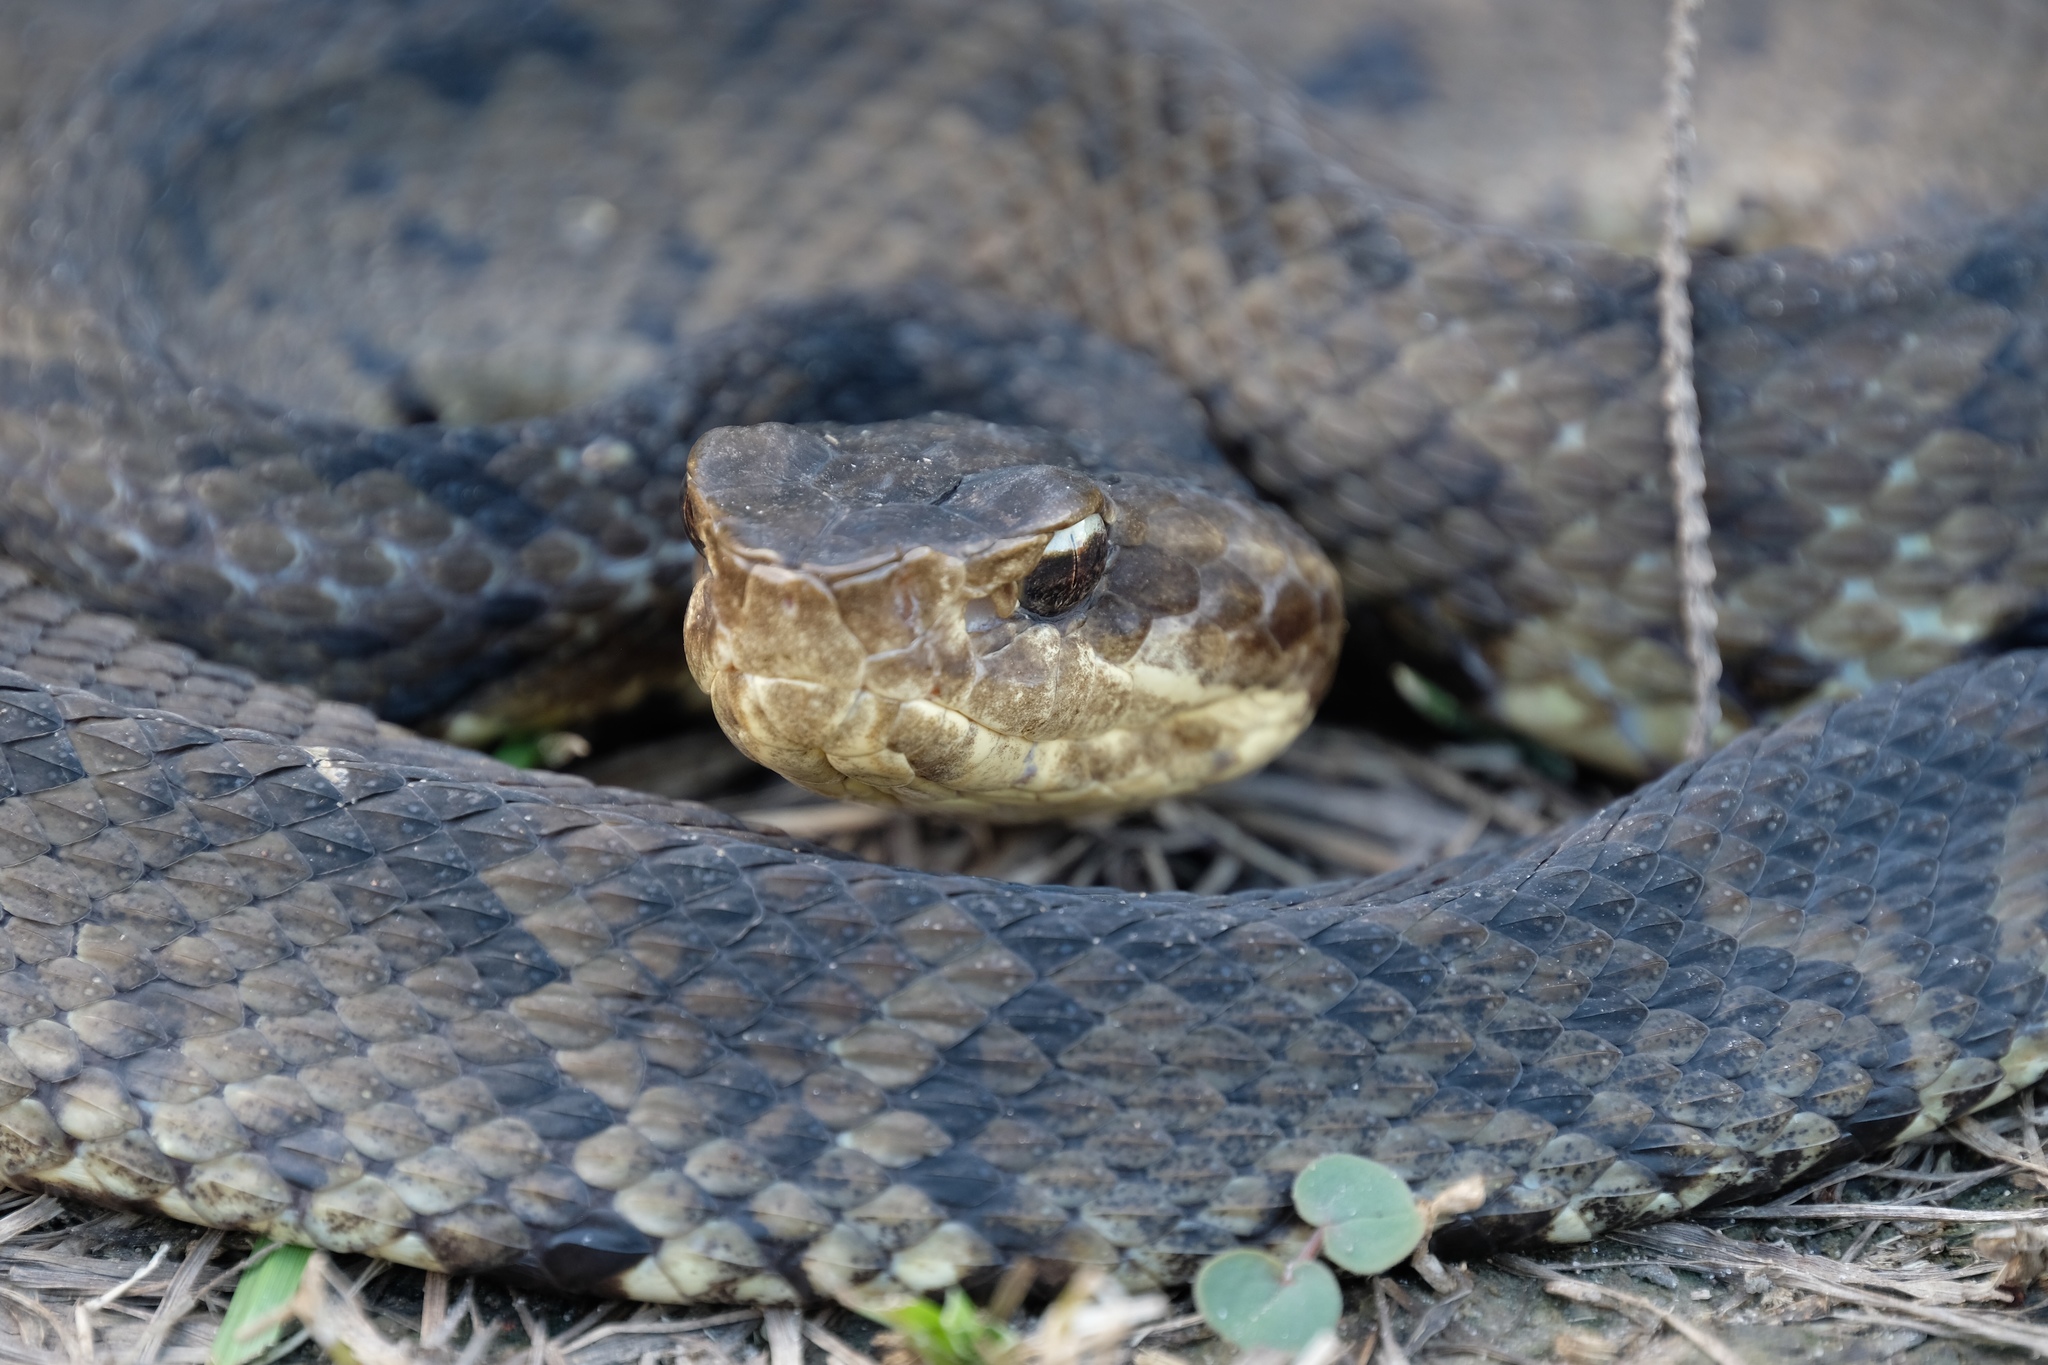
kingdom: Animalia
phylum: Chordata
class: Squamata
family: Viperidae
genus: Agkistrodon
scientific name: Agkistrodon piscivorus
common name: Cottonmouth
